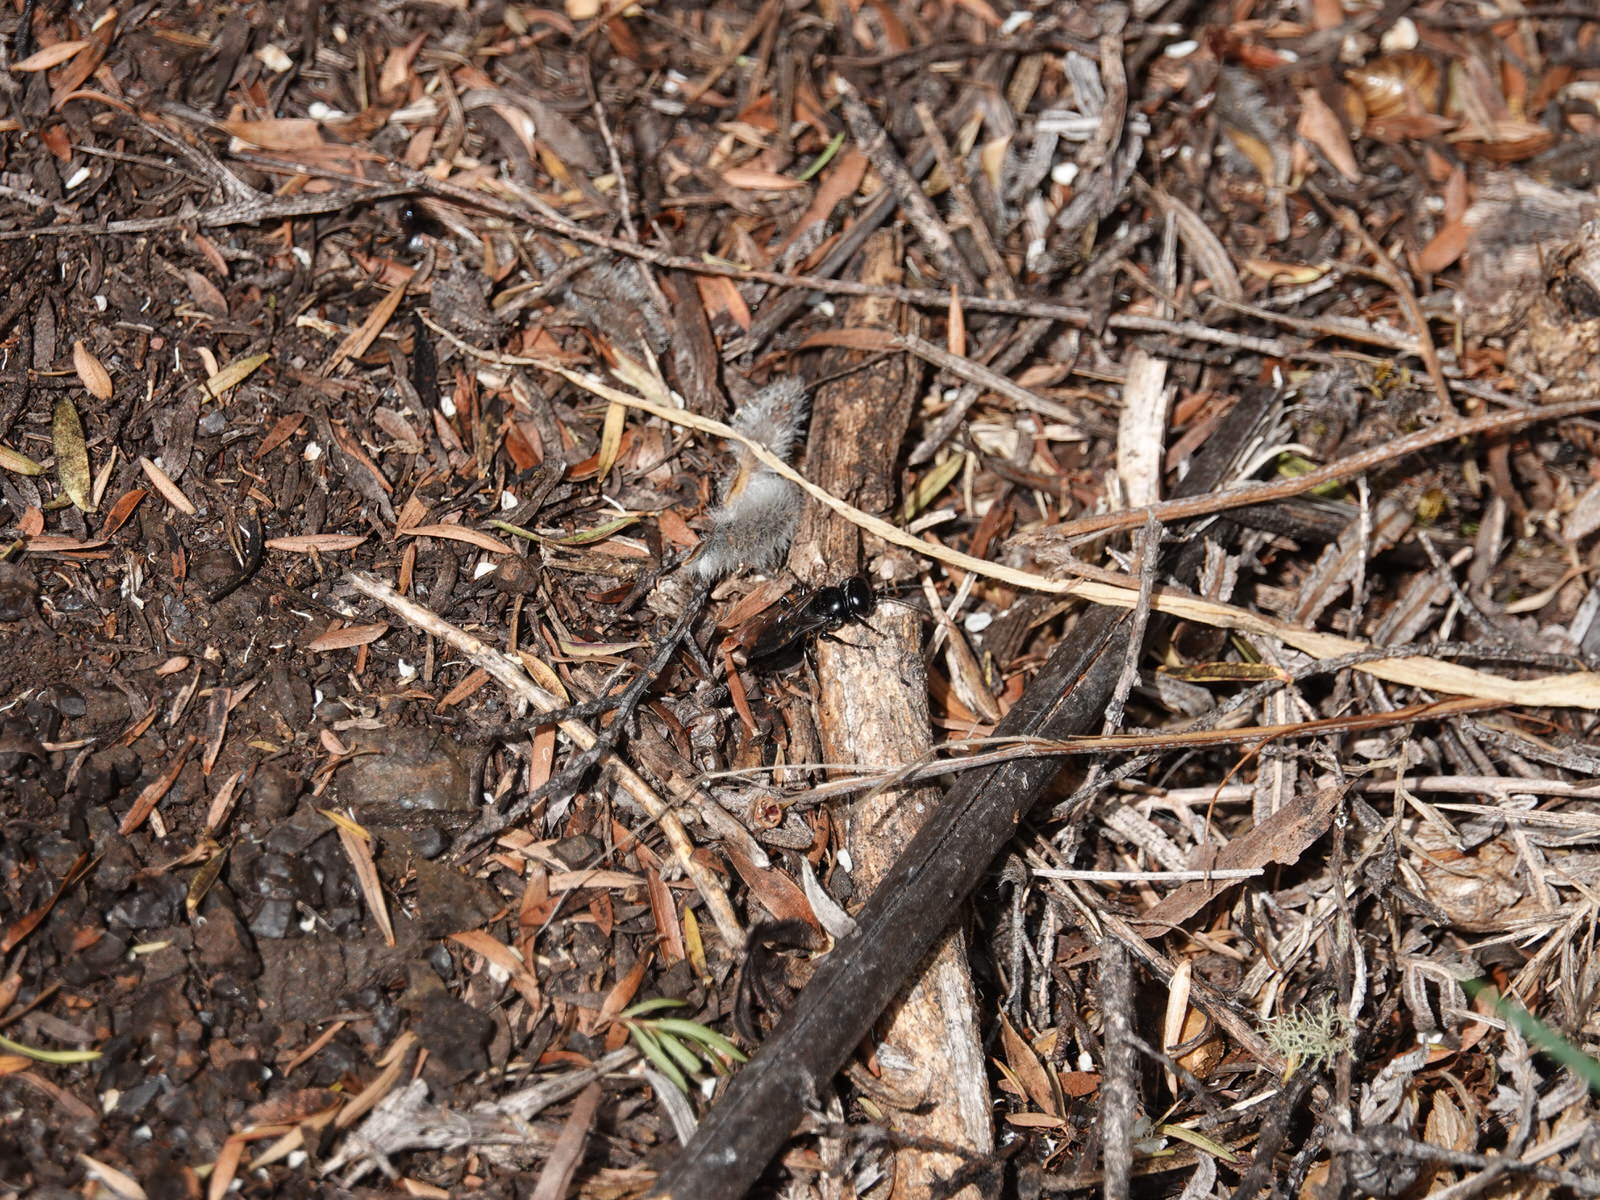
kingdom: Animalia
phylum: Arthropoda
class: Insecta
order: Hymenoptera
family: Crabronidae
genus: Tachysphex
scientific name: Tachysphex nigerrimus
